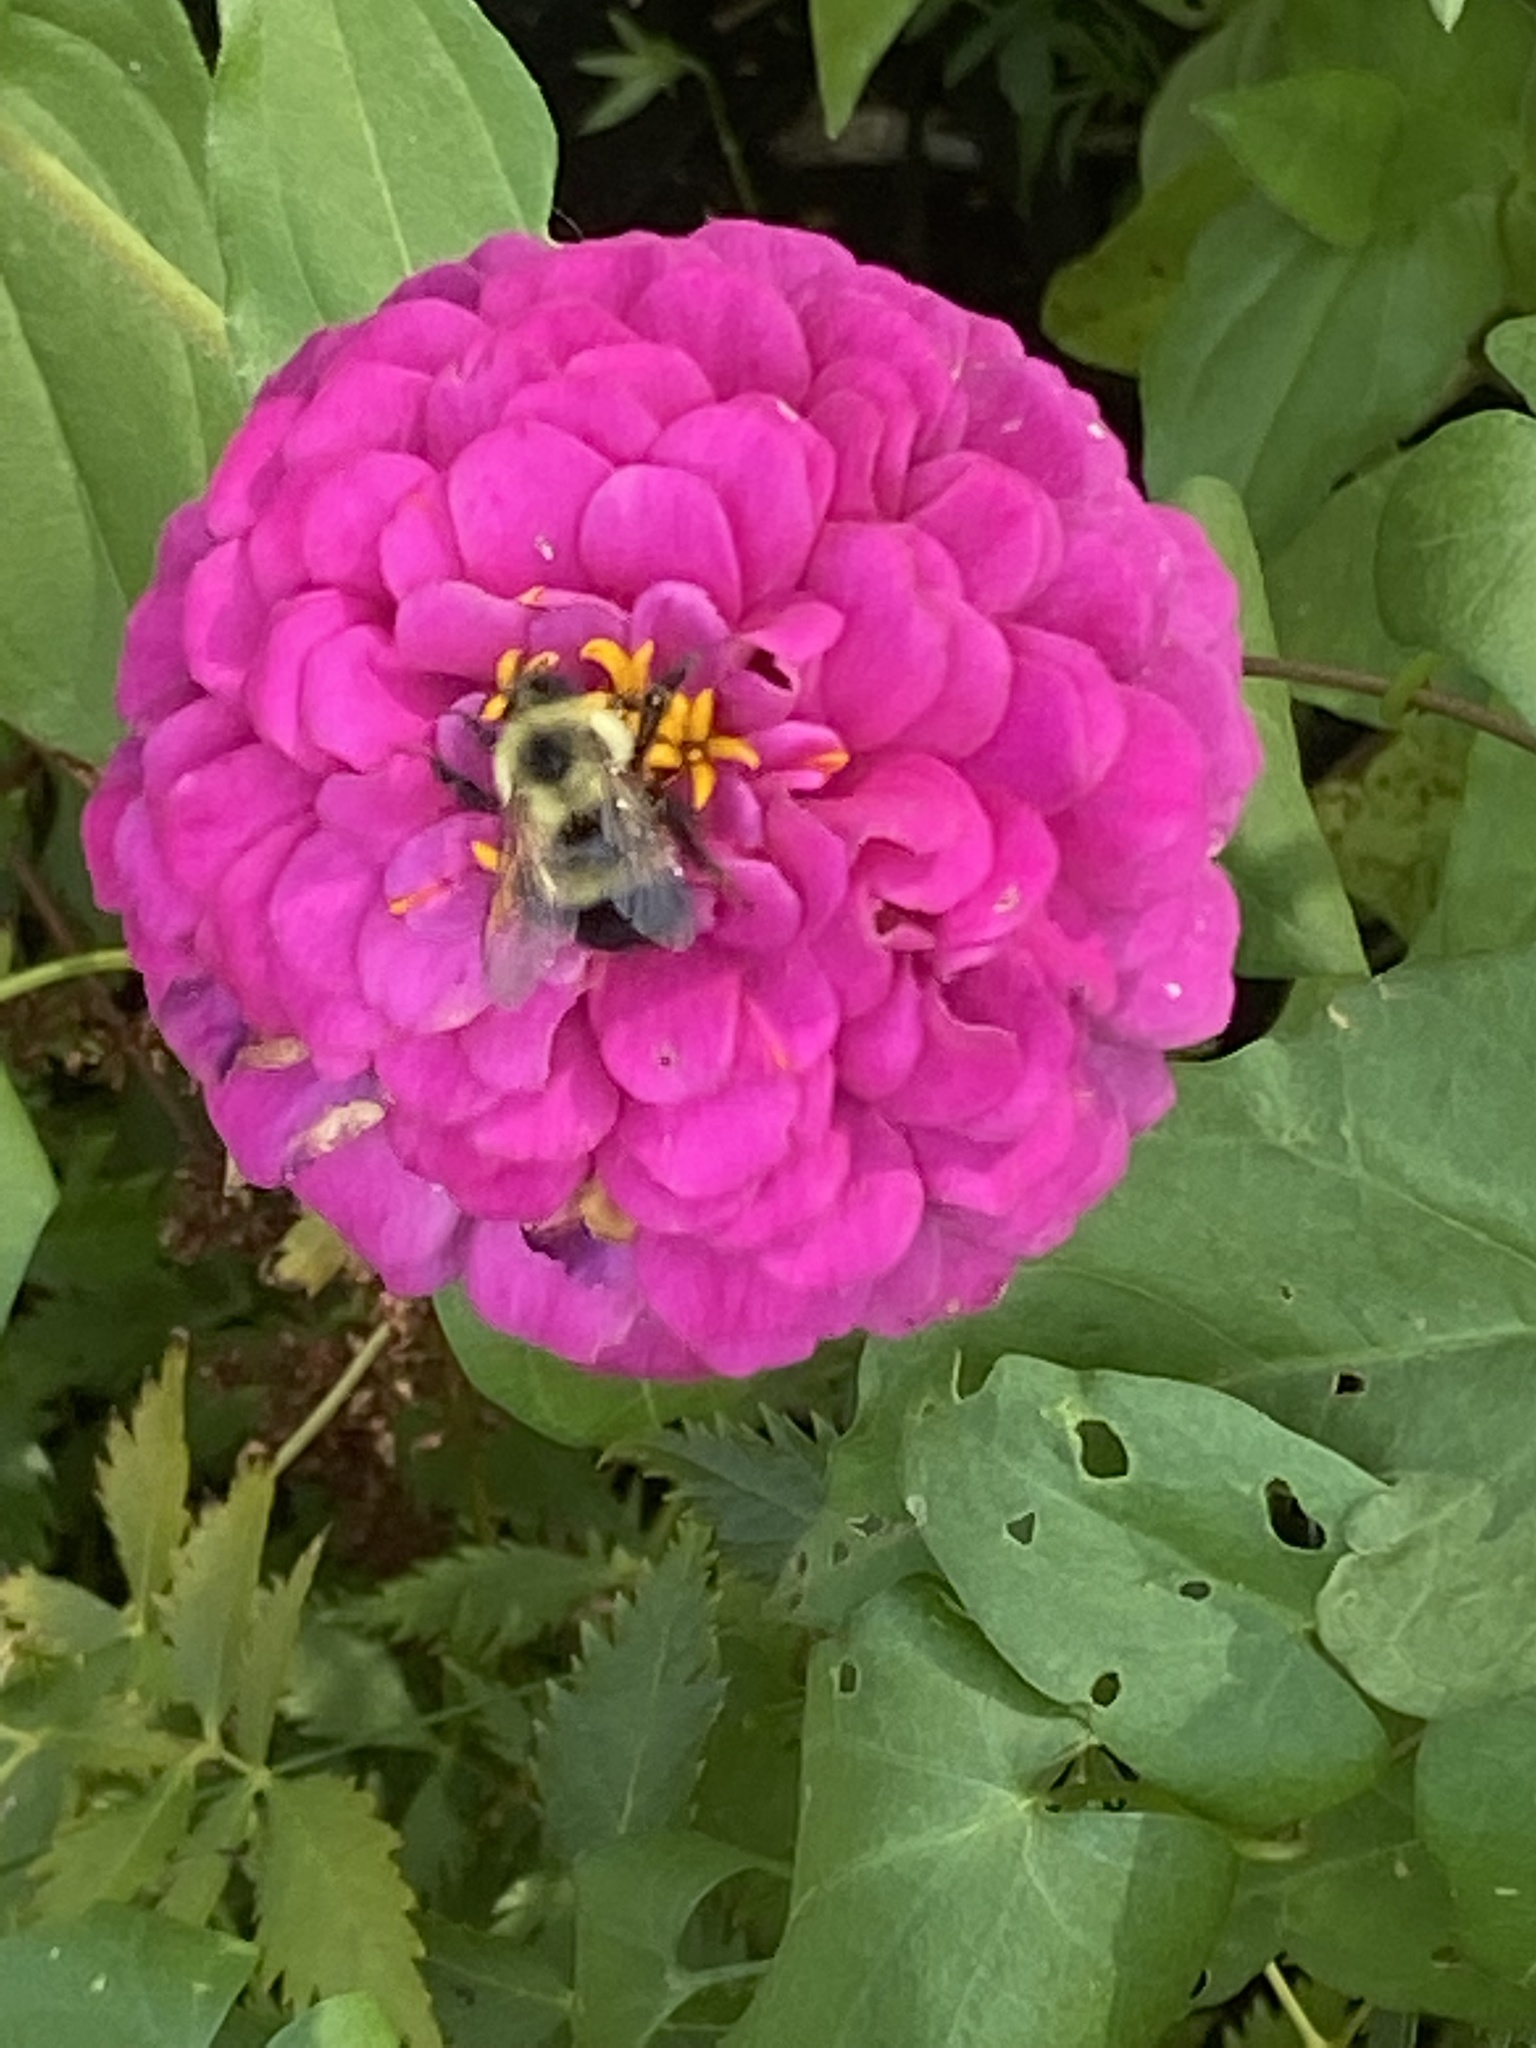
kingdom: Animalia
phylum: Arthropoda
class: Insecta
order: Hymenoptera
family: Apidae
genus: Pyrobombus
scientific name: Pyrobombus
